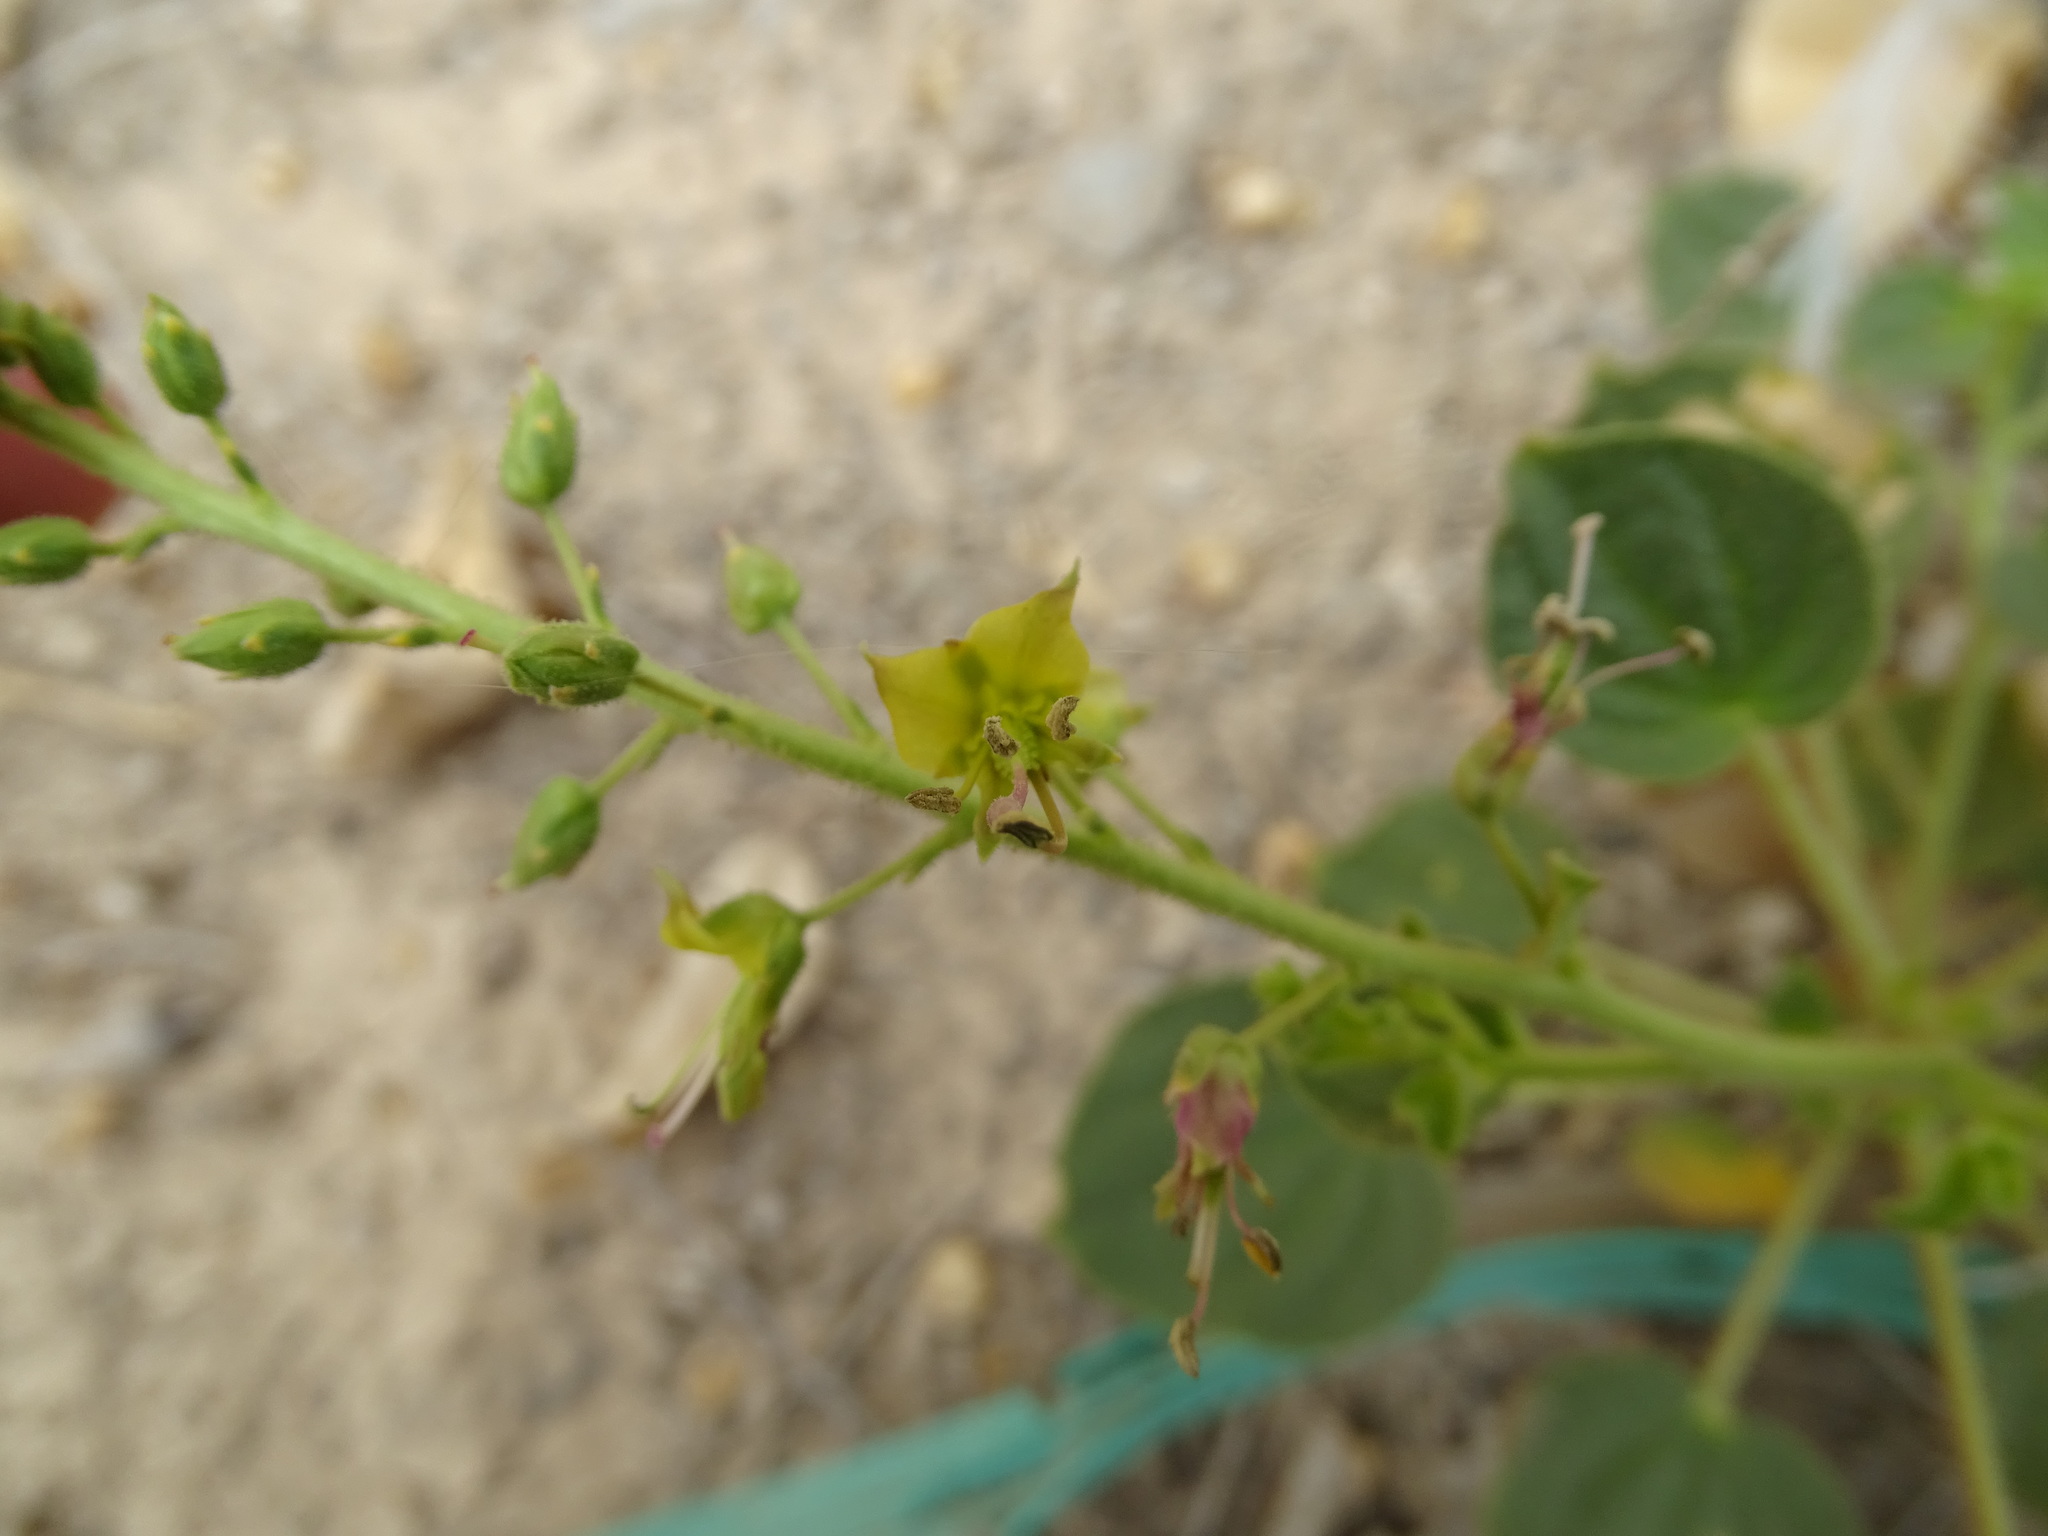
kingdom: Plantae
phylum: Tracheophyta
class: Magnoliopsida
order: Brassicales
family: Cleomaceae
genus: Rorida
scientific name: Rorida quinquenervia
